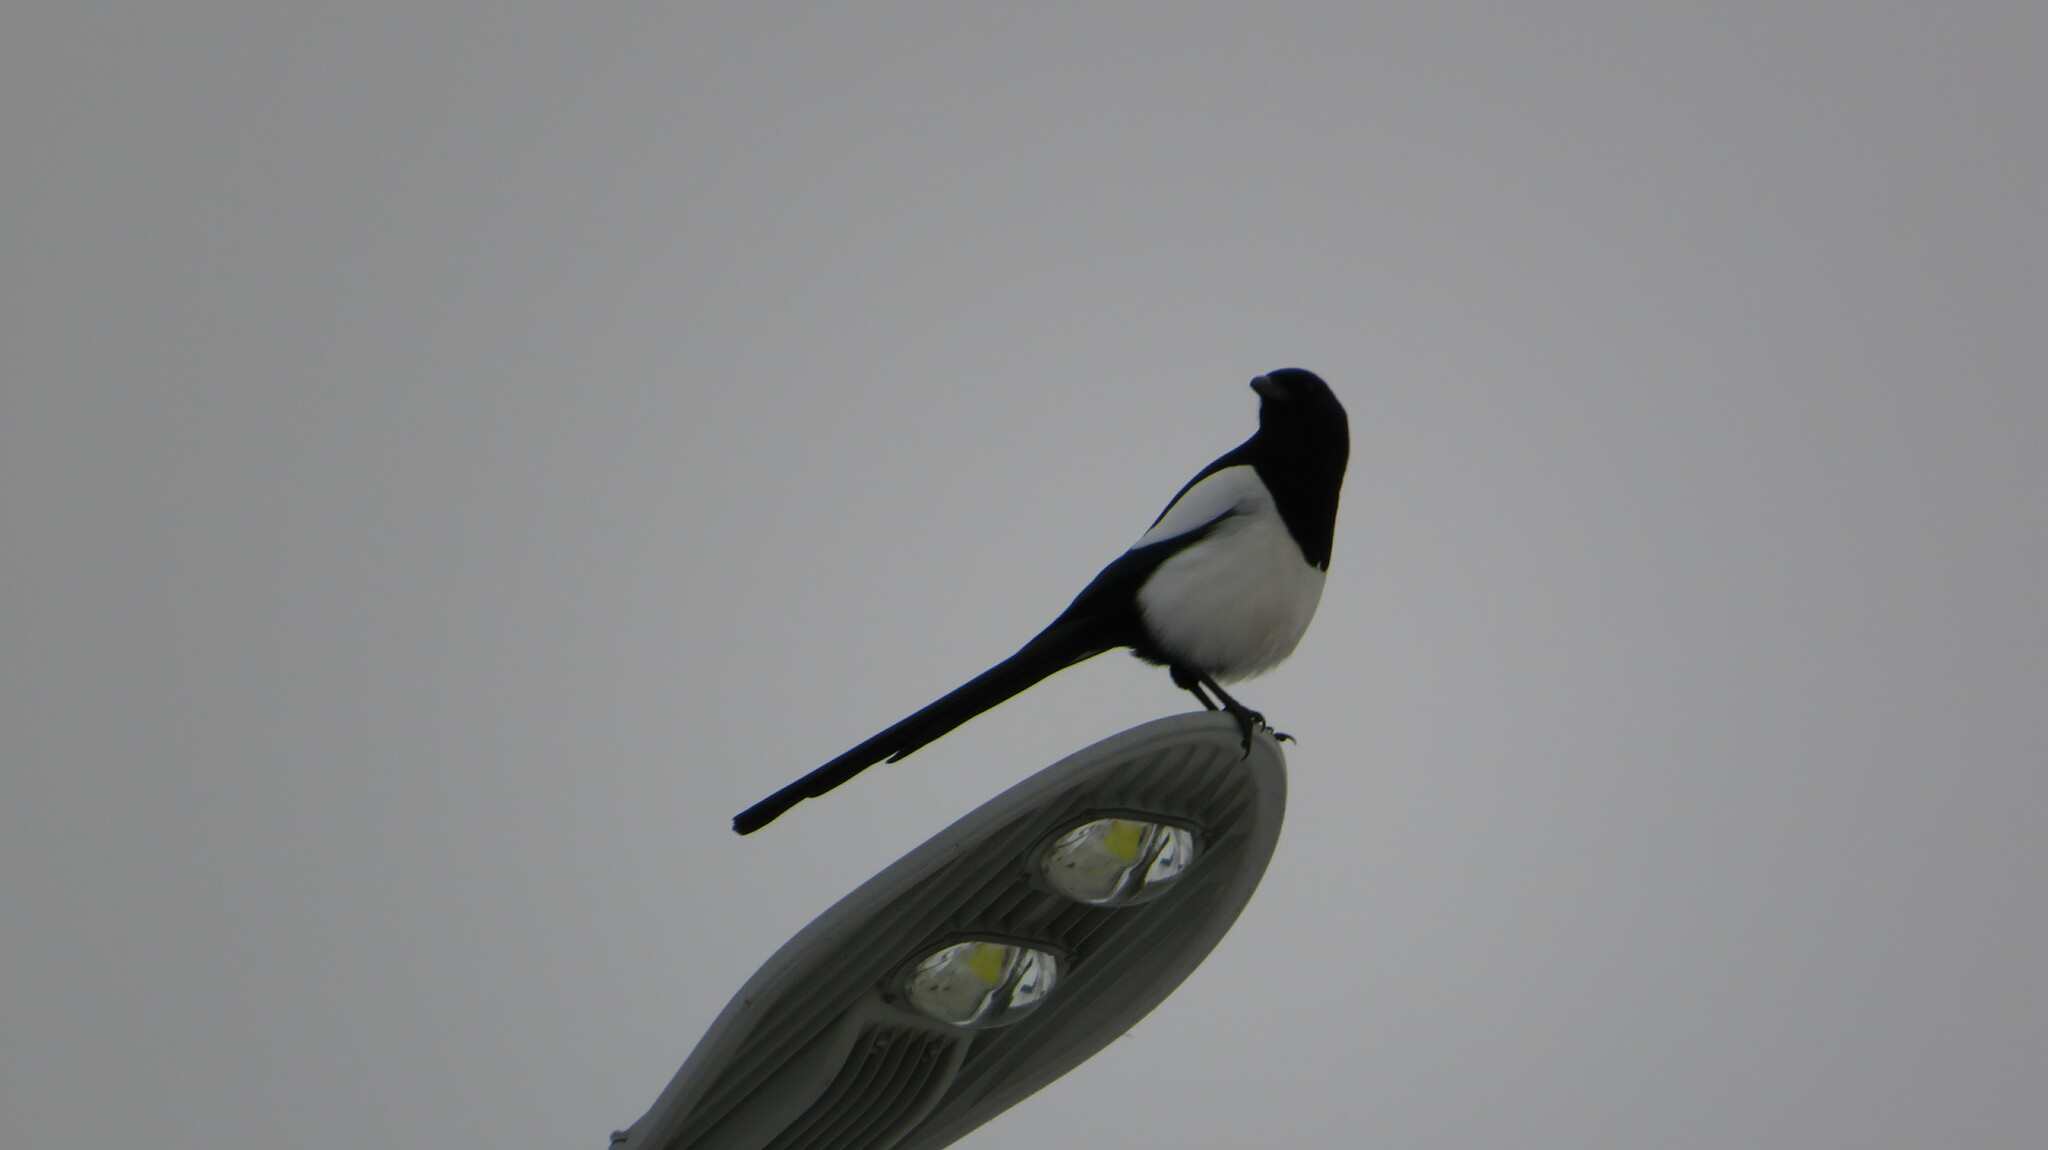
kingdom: Animalia
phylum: Chordata
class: Aves
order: Passeriformes
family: Corvidae
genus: Pica
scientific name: Pica pica
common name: Eurasian magpie
